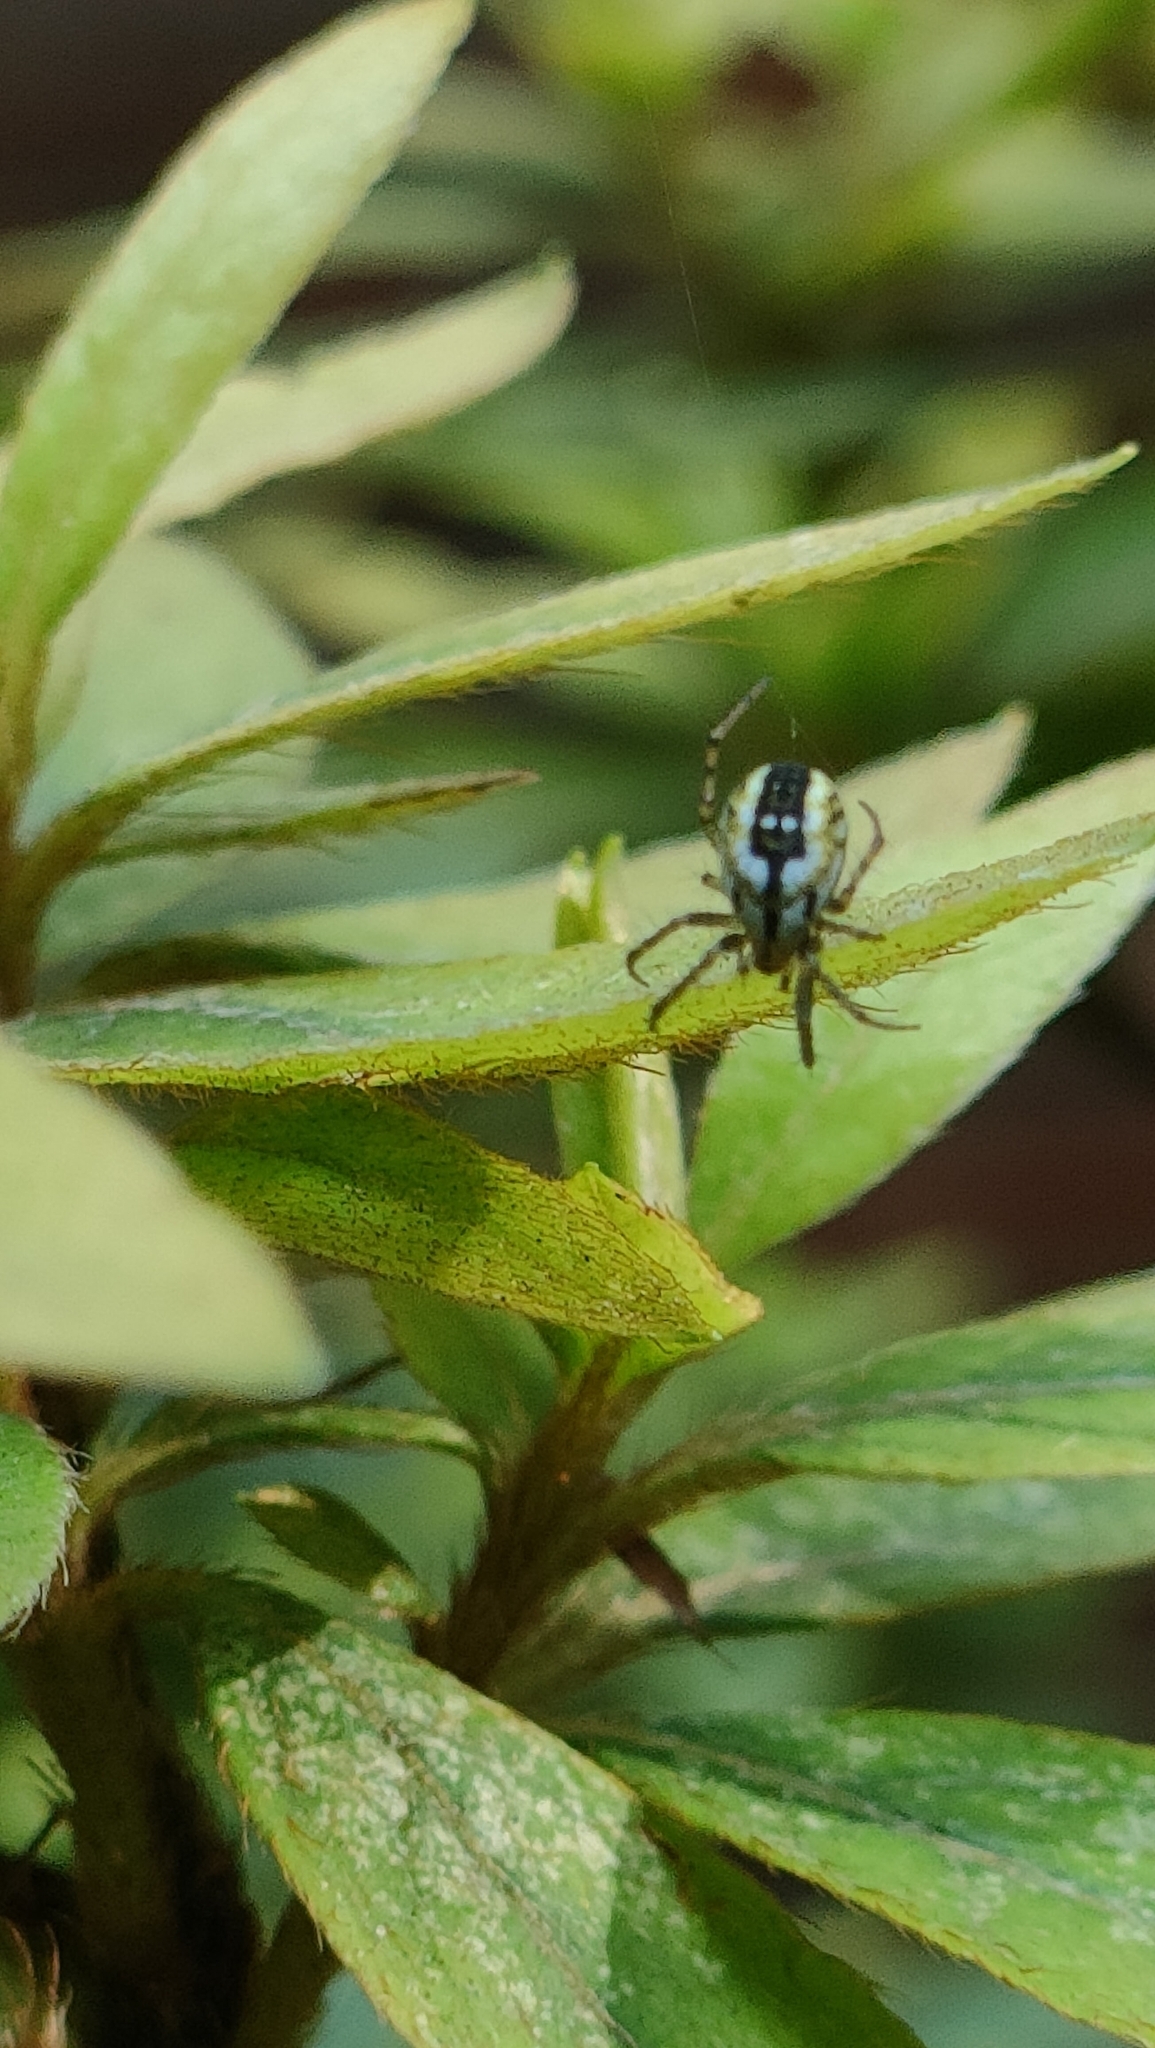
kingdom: Animalia
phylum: Arthropoda
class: Arachnida
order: Araneae
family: Araneidae
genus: Mangora
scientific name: Mangora acalypha
